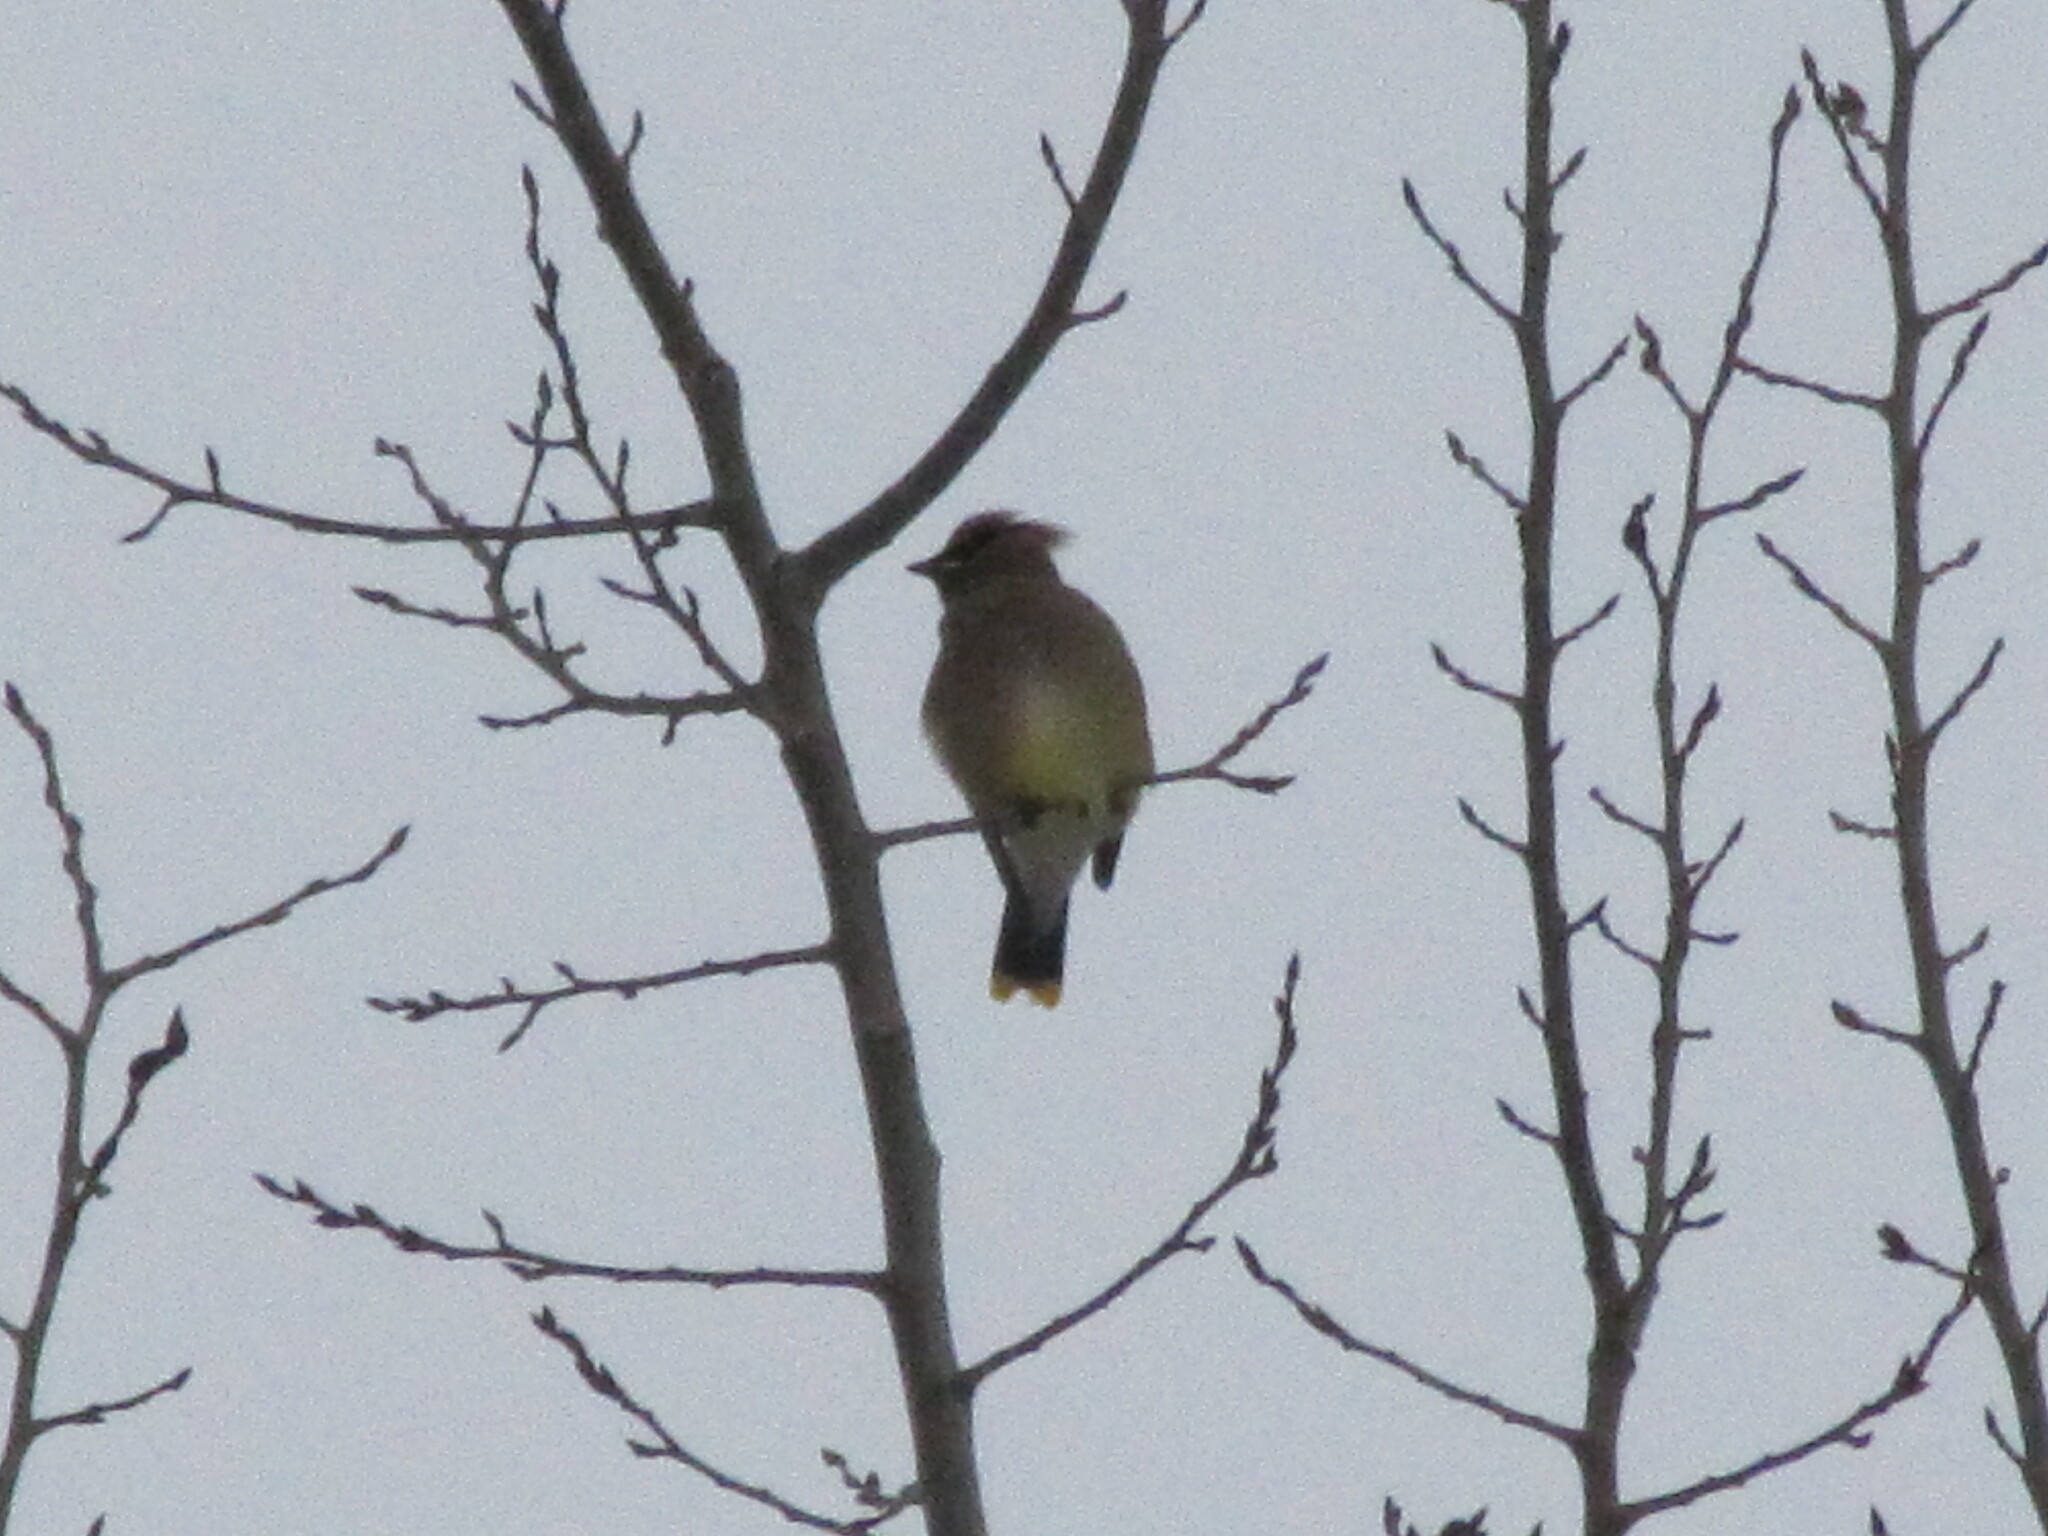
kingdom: Animalia
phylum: Chordata
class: Aves
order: Passeriformes
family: Bombycillidae
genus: Bombycilla
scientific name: Bombycilla cedrorum
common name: Cedar waxwing
